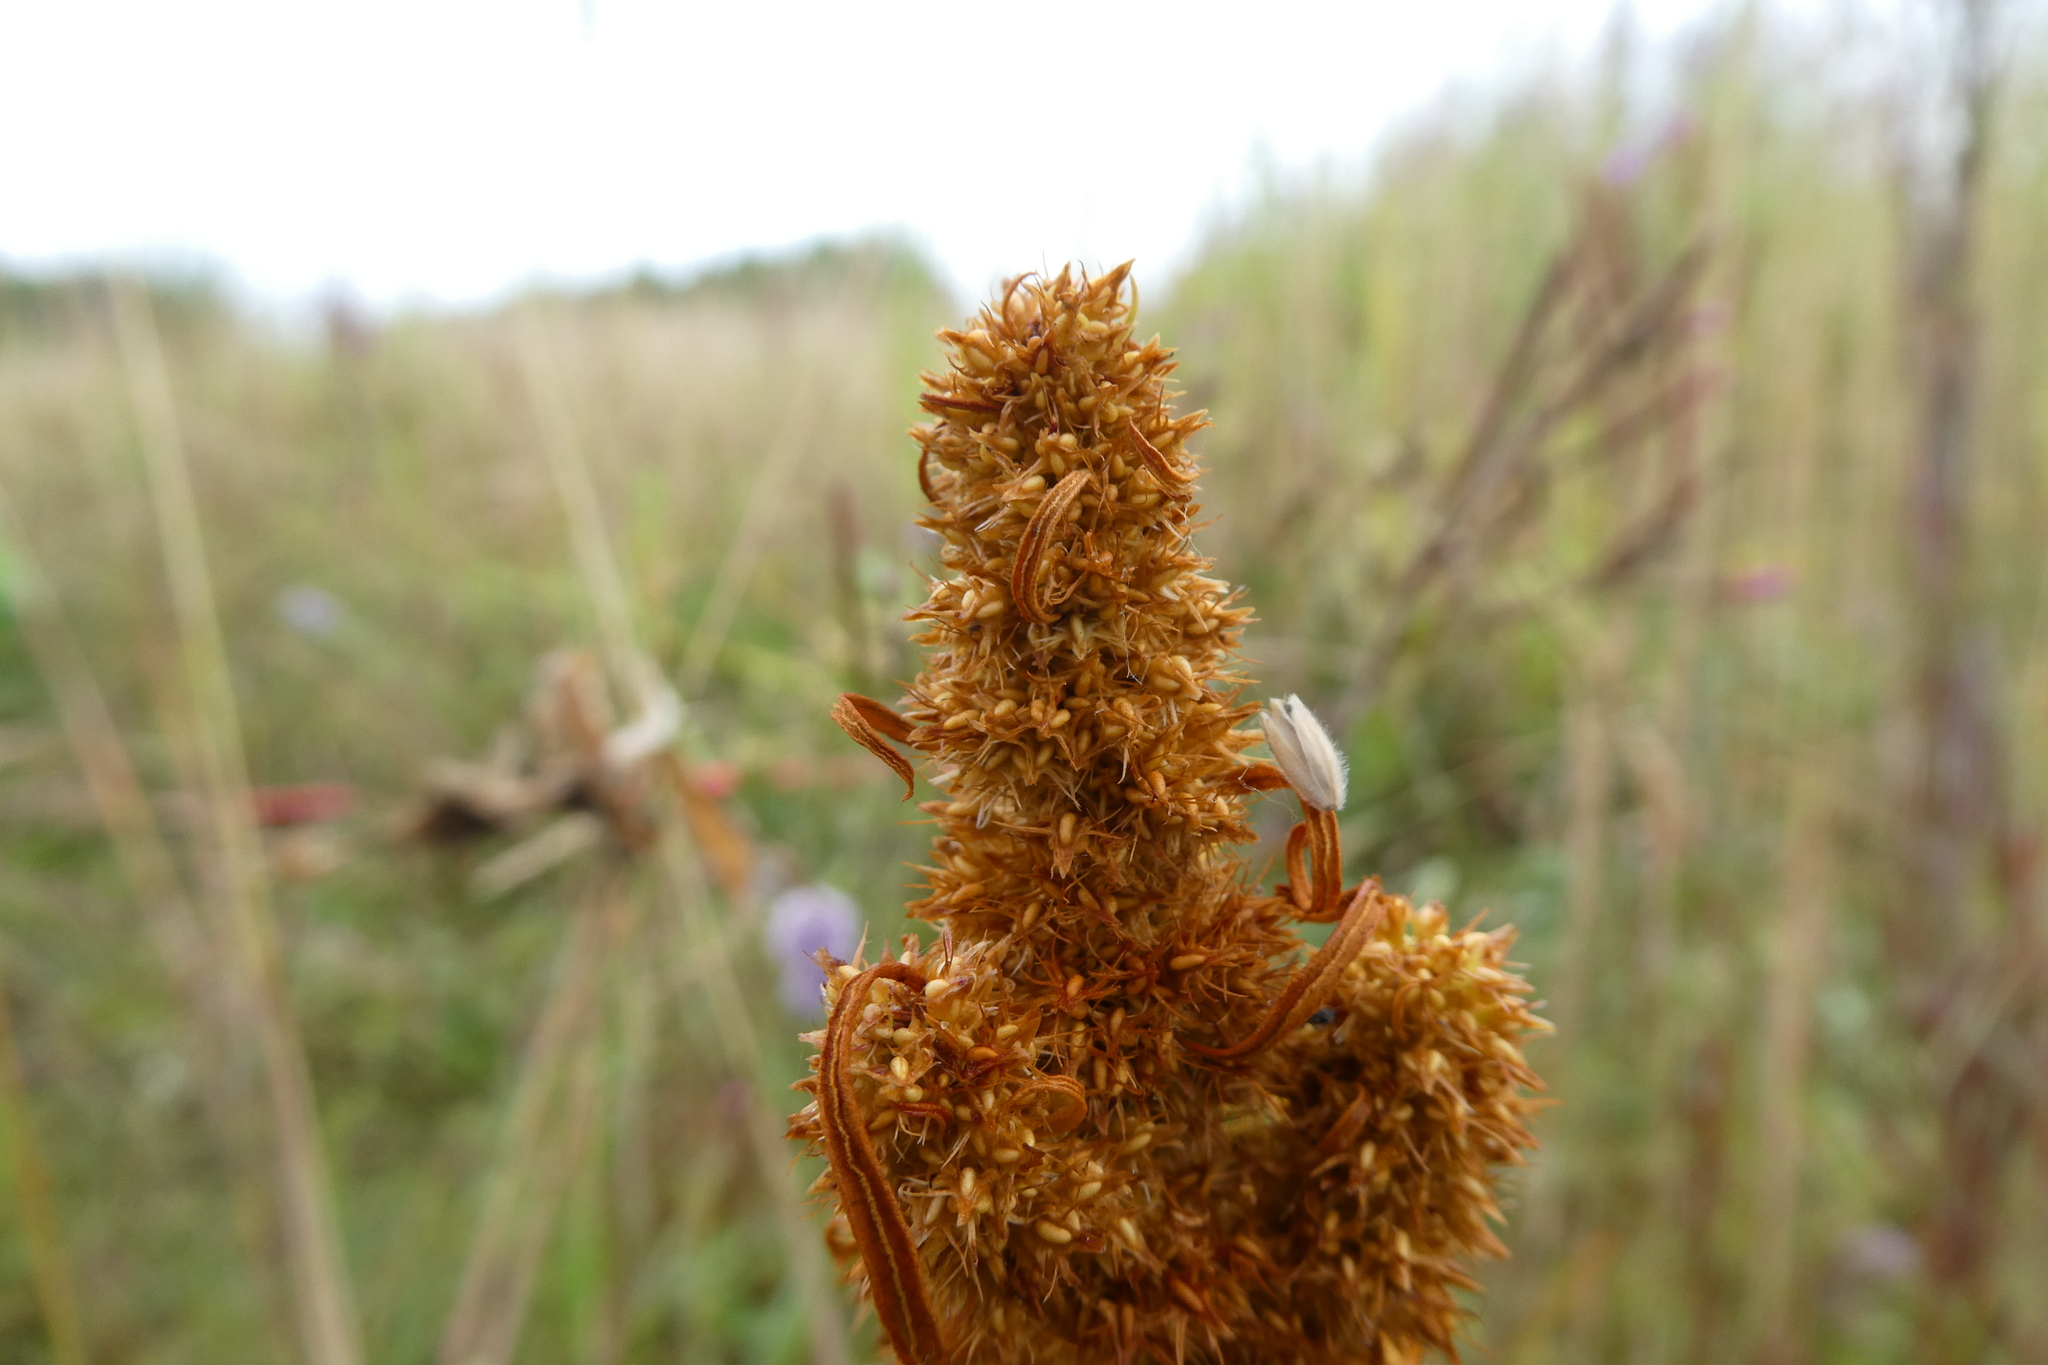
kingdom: Plantae
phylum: Tracheophyta
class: Magnoliopsida
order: Caryophyllales
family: Polygonaceae
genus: Rumex
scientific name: Rumex maritimus
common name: Golden dock
